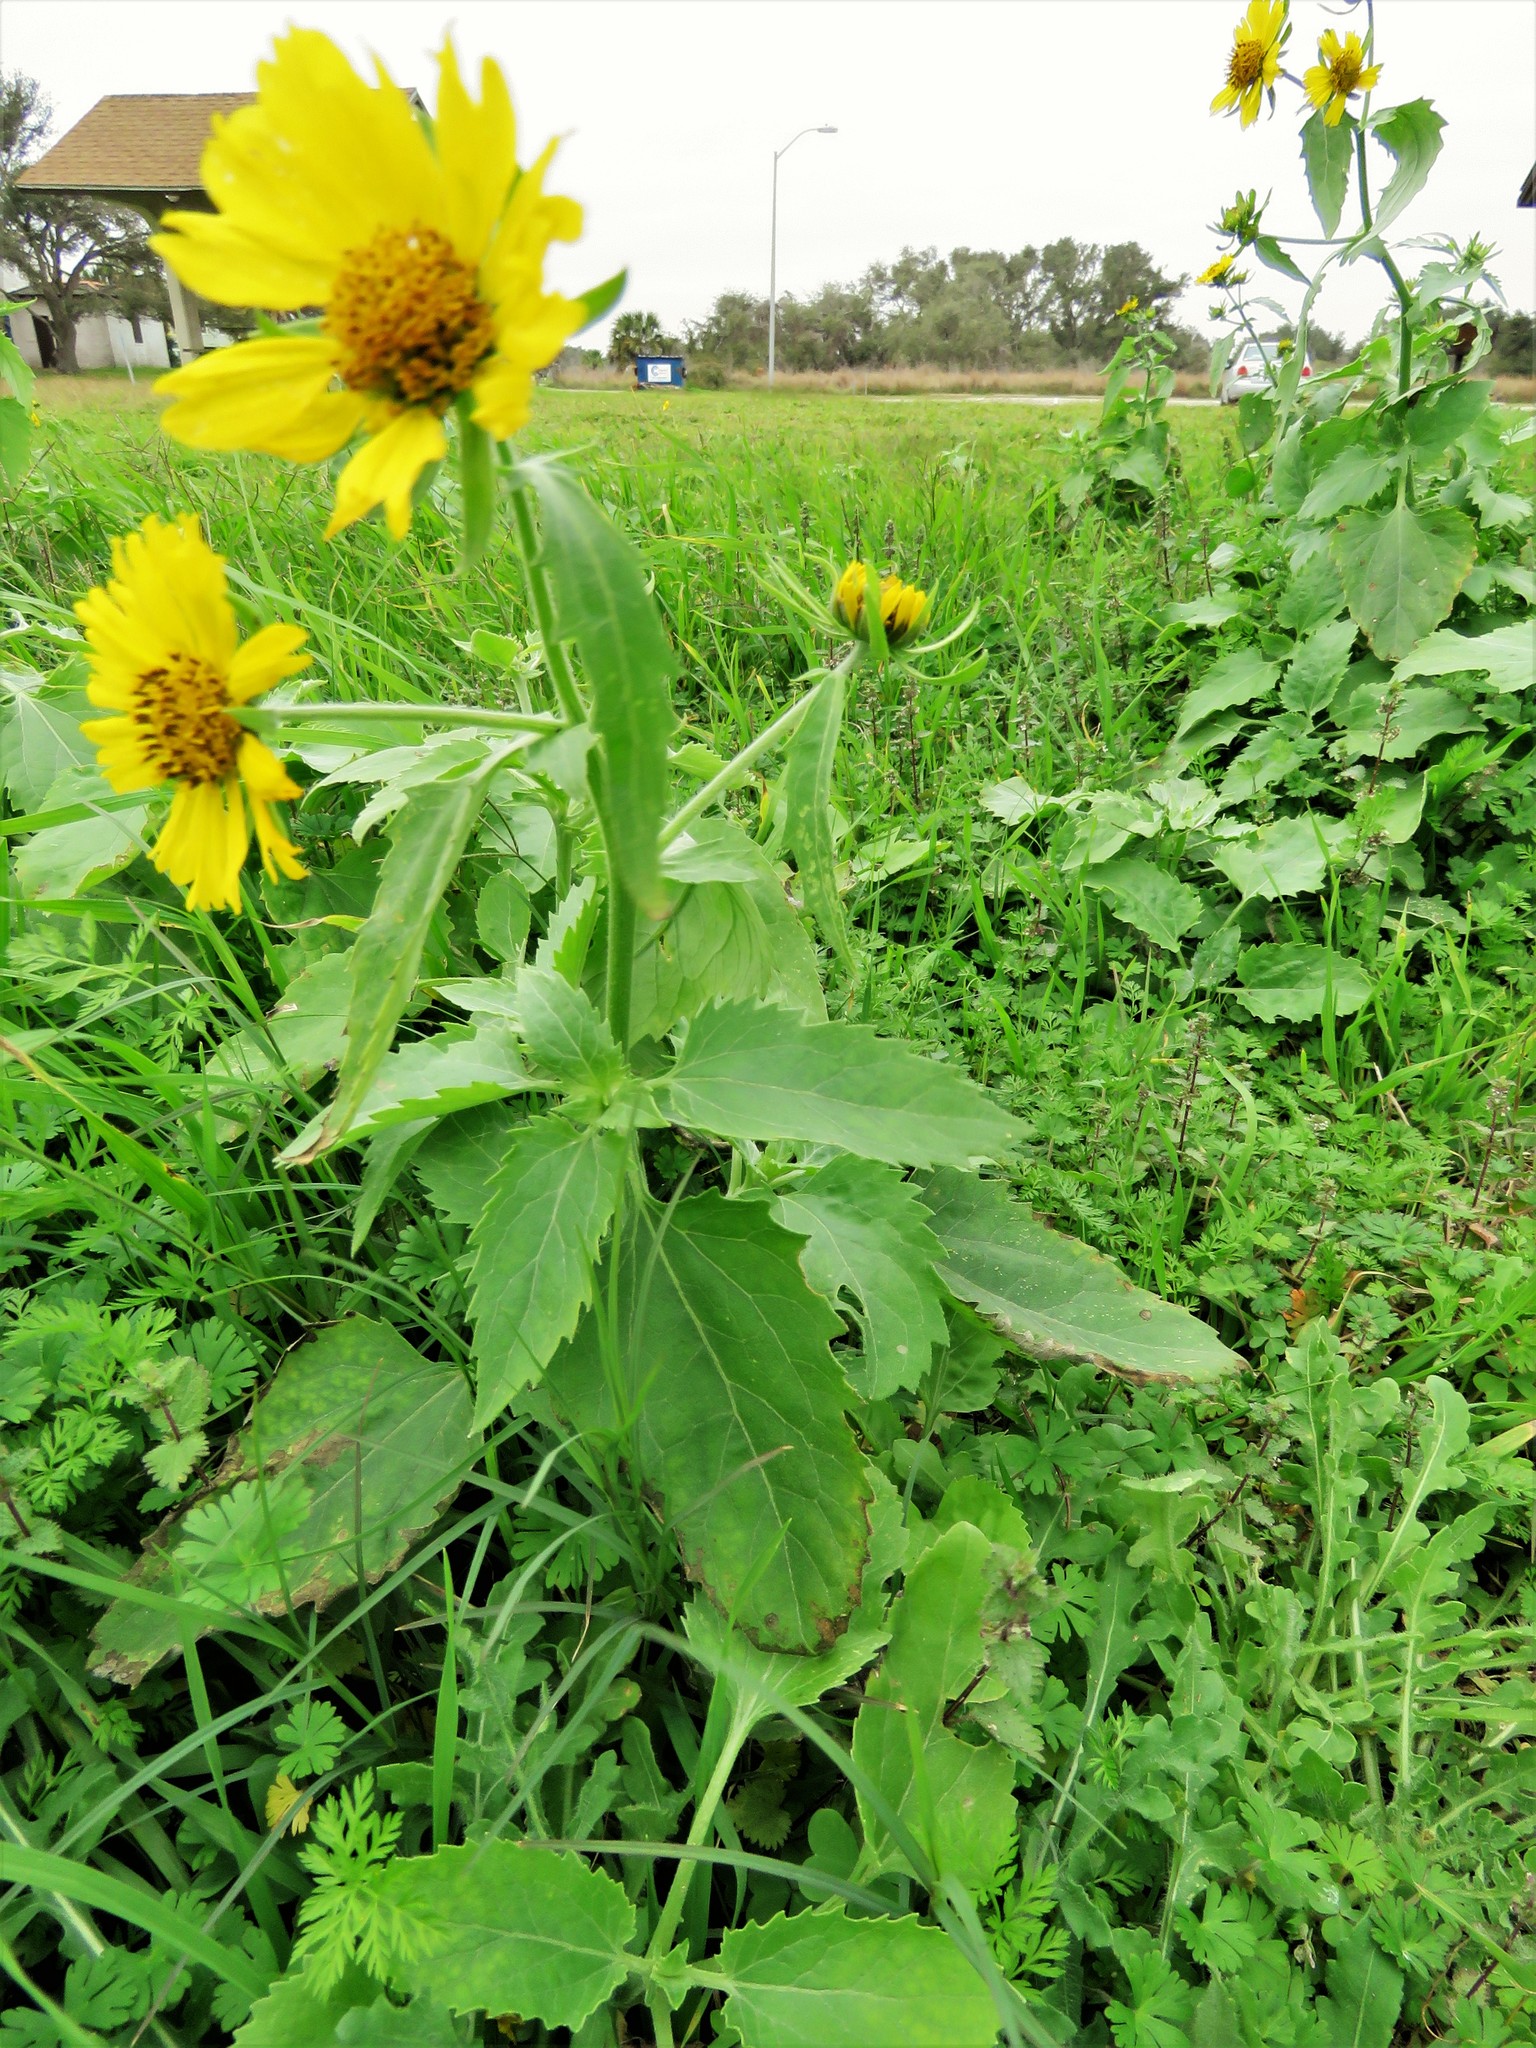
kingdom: Plantae
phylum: Tracheophyta
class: Magnoliopsida
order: Asterales
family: Asteraceae
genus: Verbesina
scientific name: Verbesina encelioides
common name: Golden crownbeard
